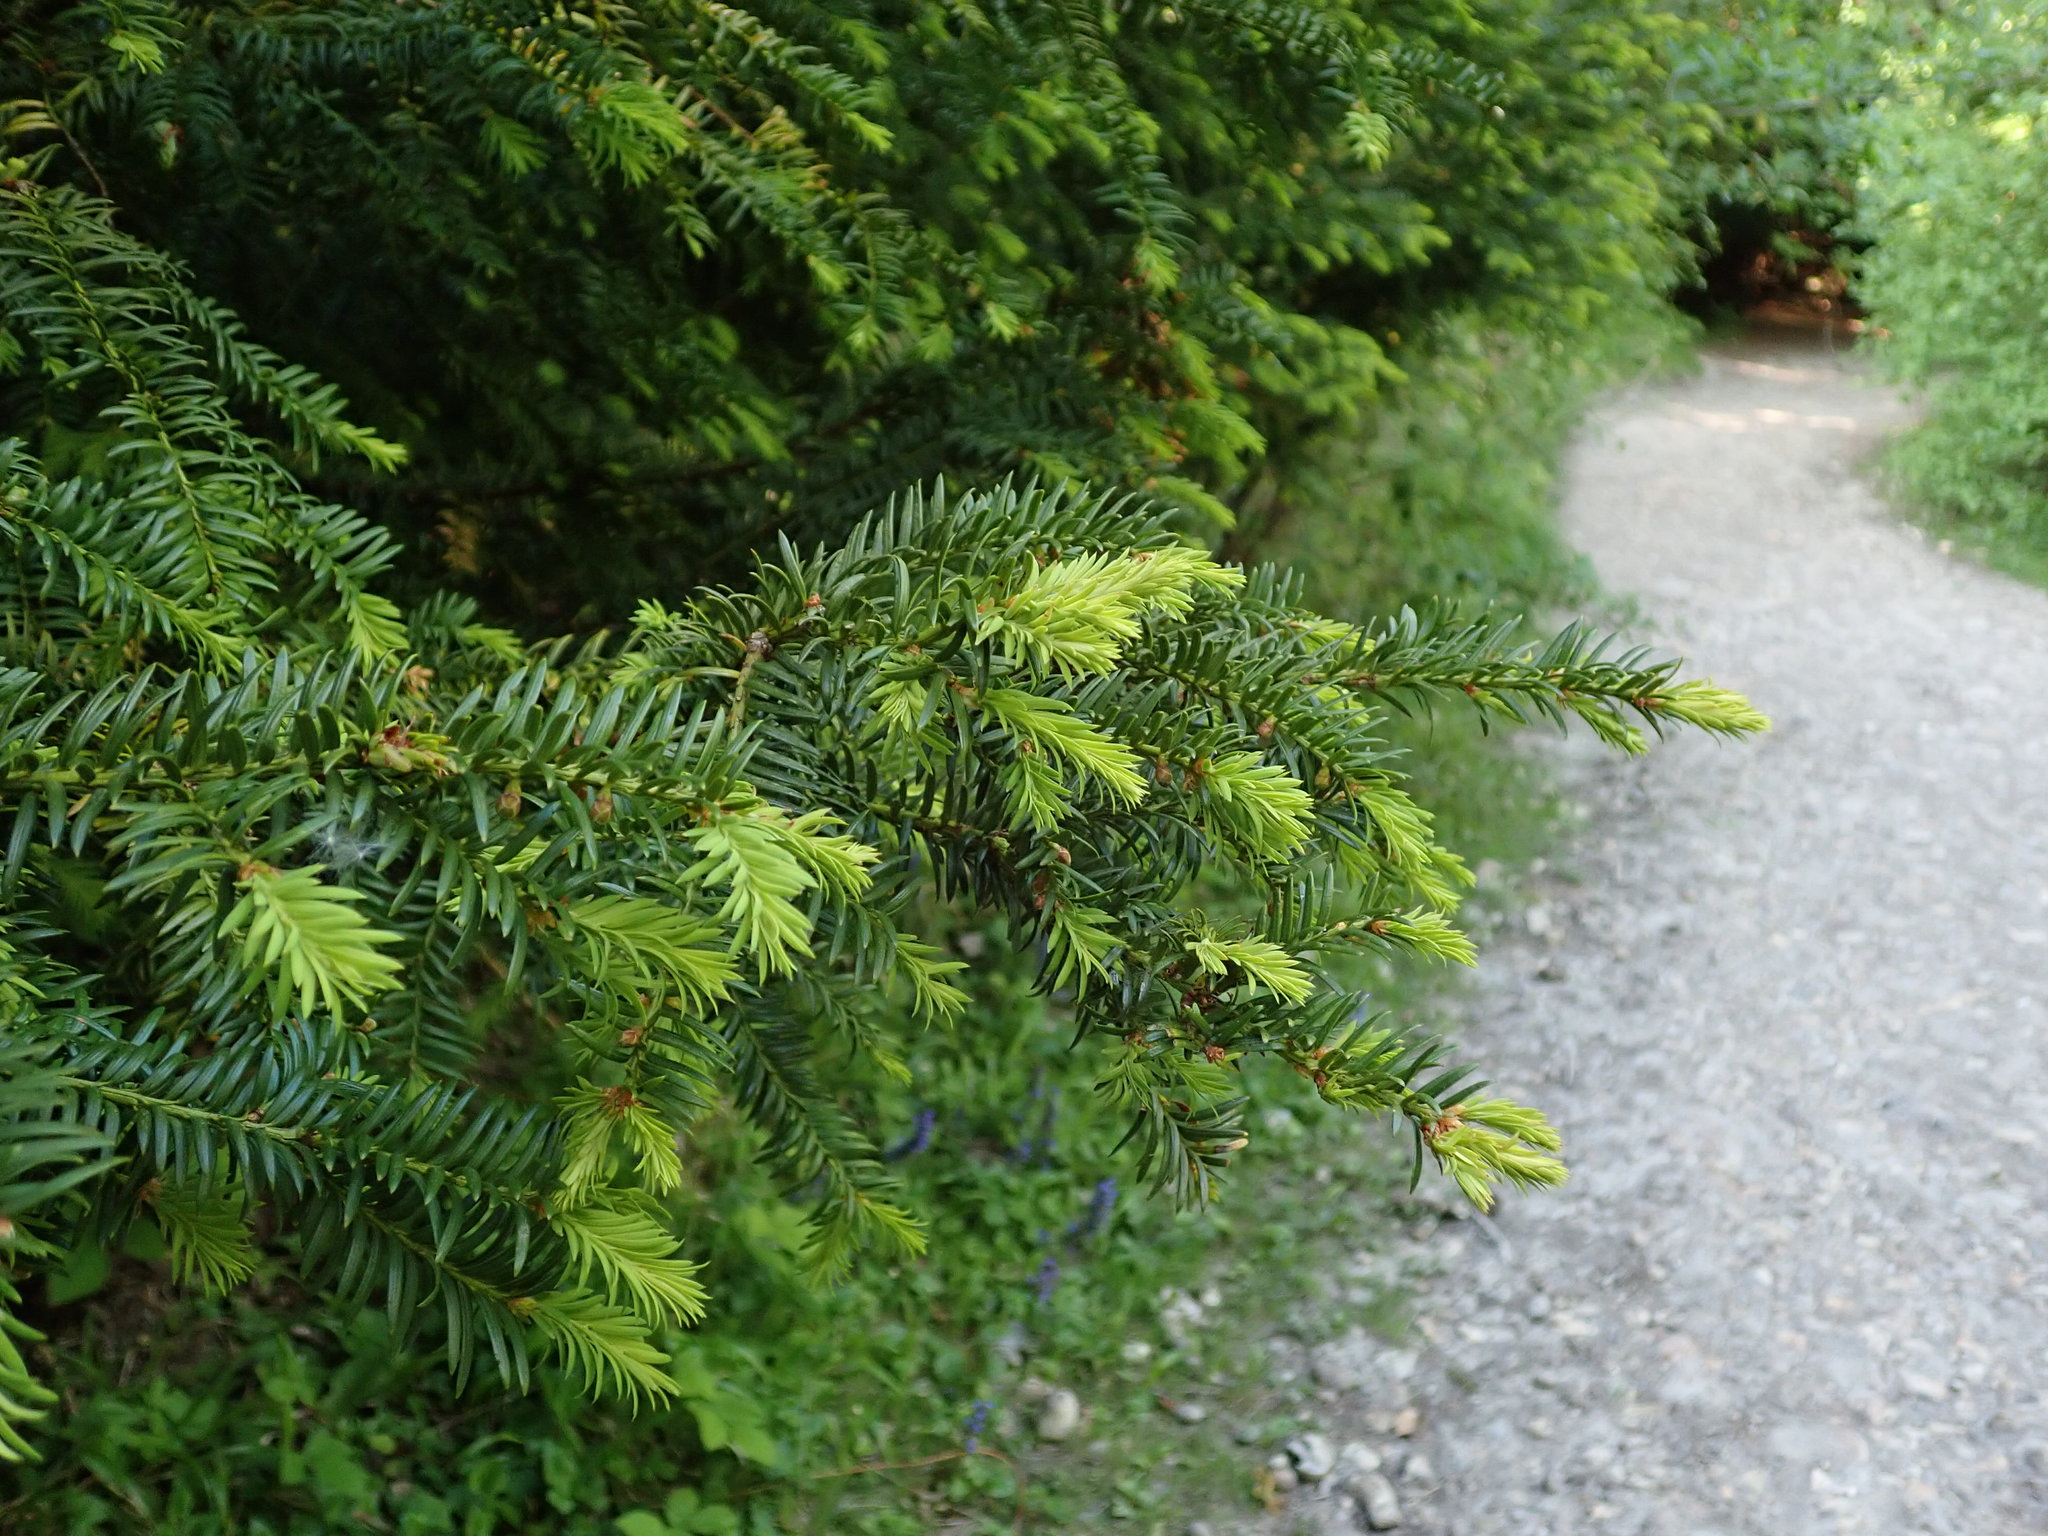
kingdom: Plantae
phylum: Tracheophyta
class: Pinopsida
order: Pinales
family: Taxaceae
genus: Taxus
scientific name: Taxus baccata
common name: Yew
